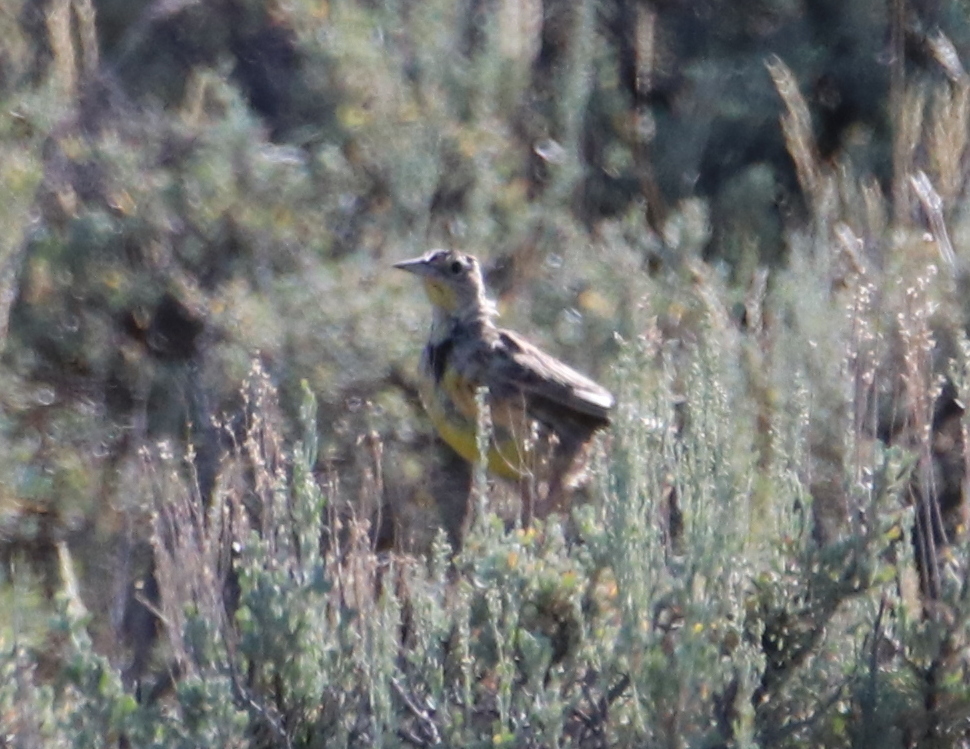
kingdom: Animalia
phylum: Chordata
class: Aves
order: Passeriformes
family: Icteridae
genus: Sturnella
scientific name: Sturnella neglecta
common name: Western meadowlark
